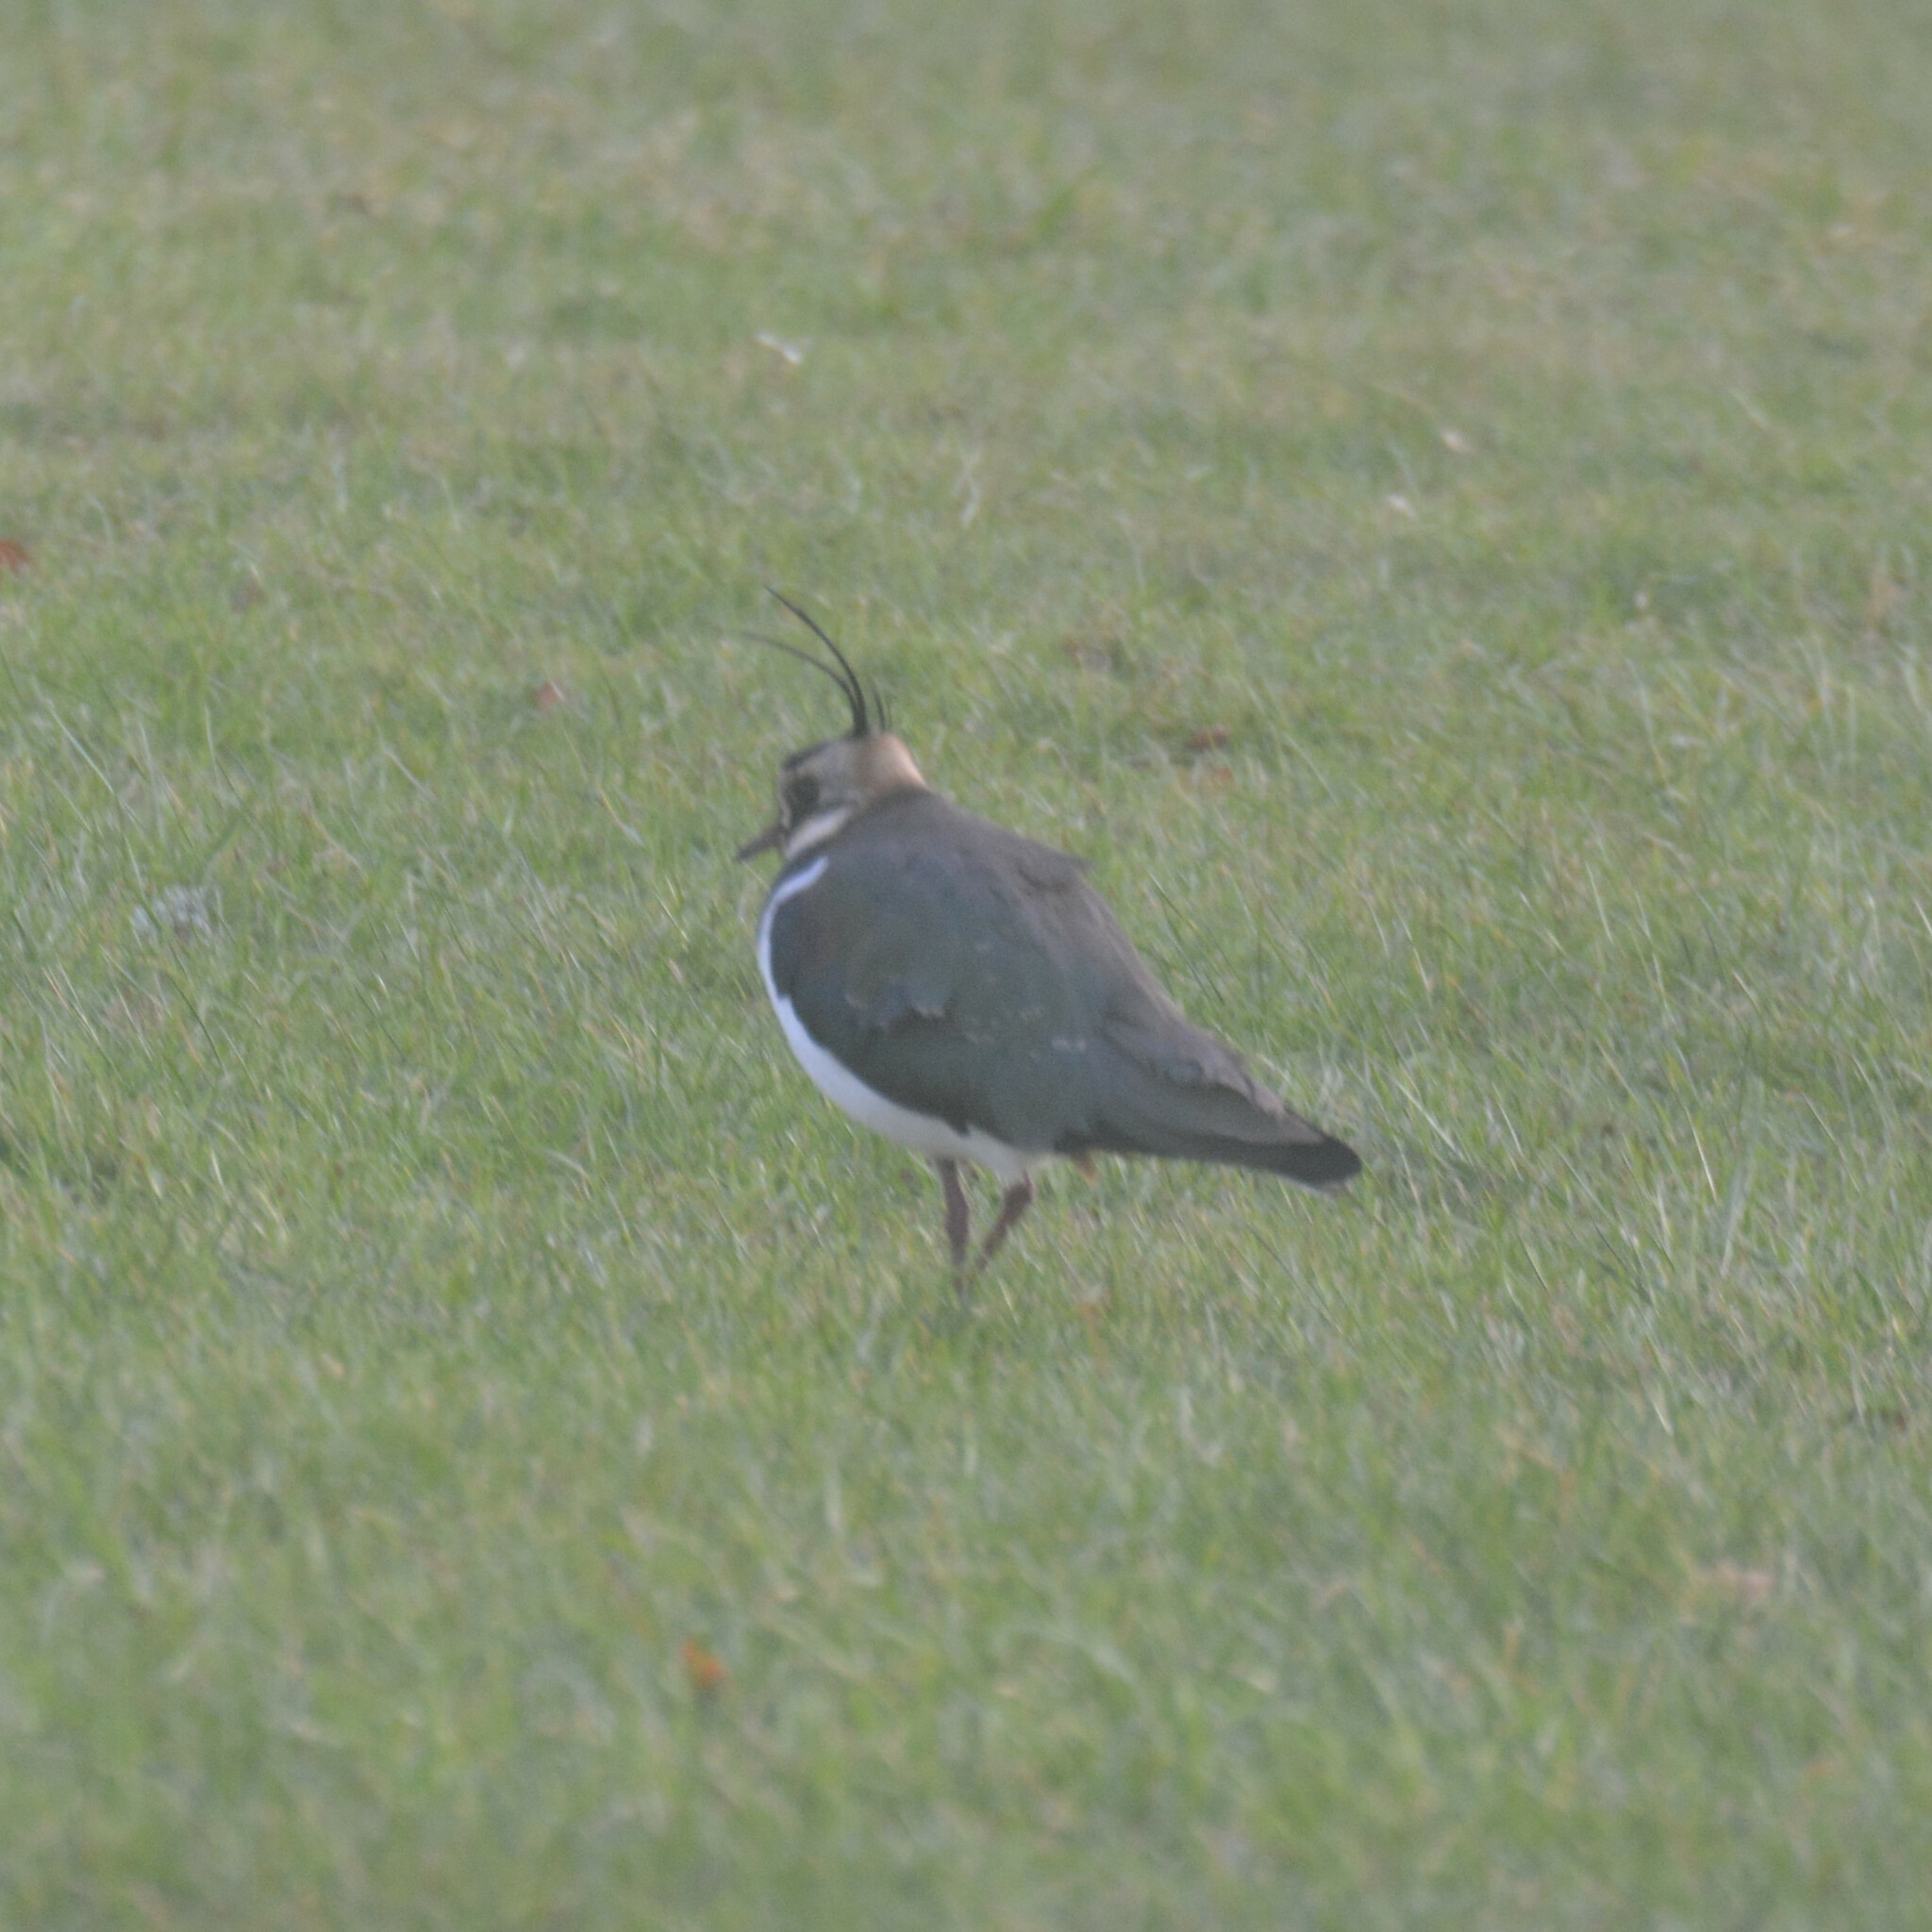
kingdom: Animalia
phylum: Chordata
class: Aves
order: Charadriiformes
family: Charadriidae
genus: Vanellus
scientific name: Vanellus vanellus
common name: Northern lapwing
